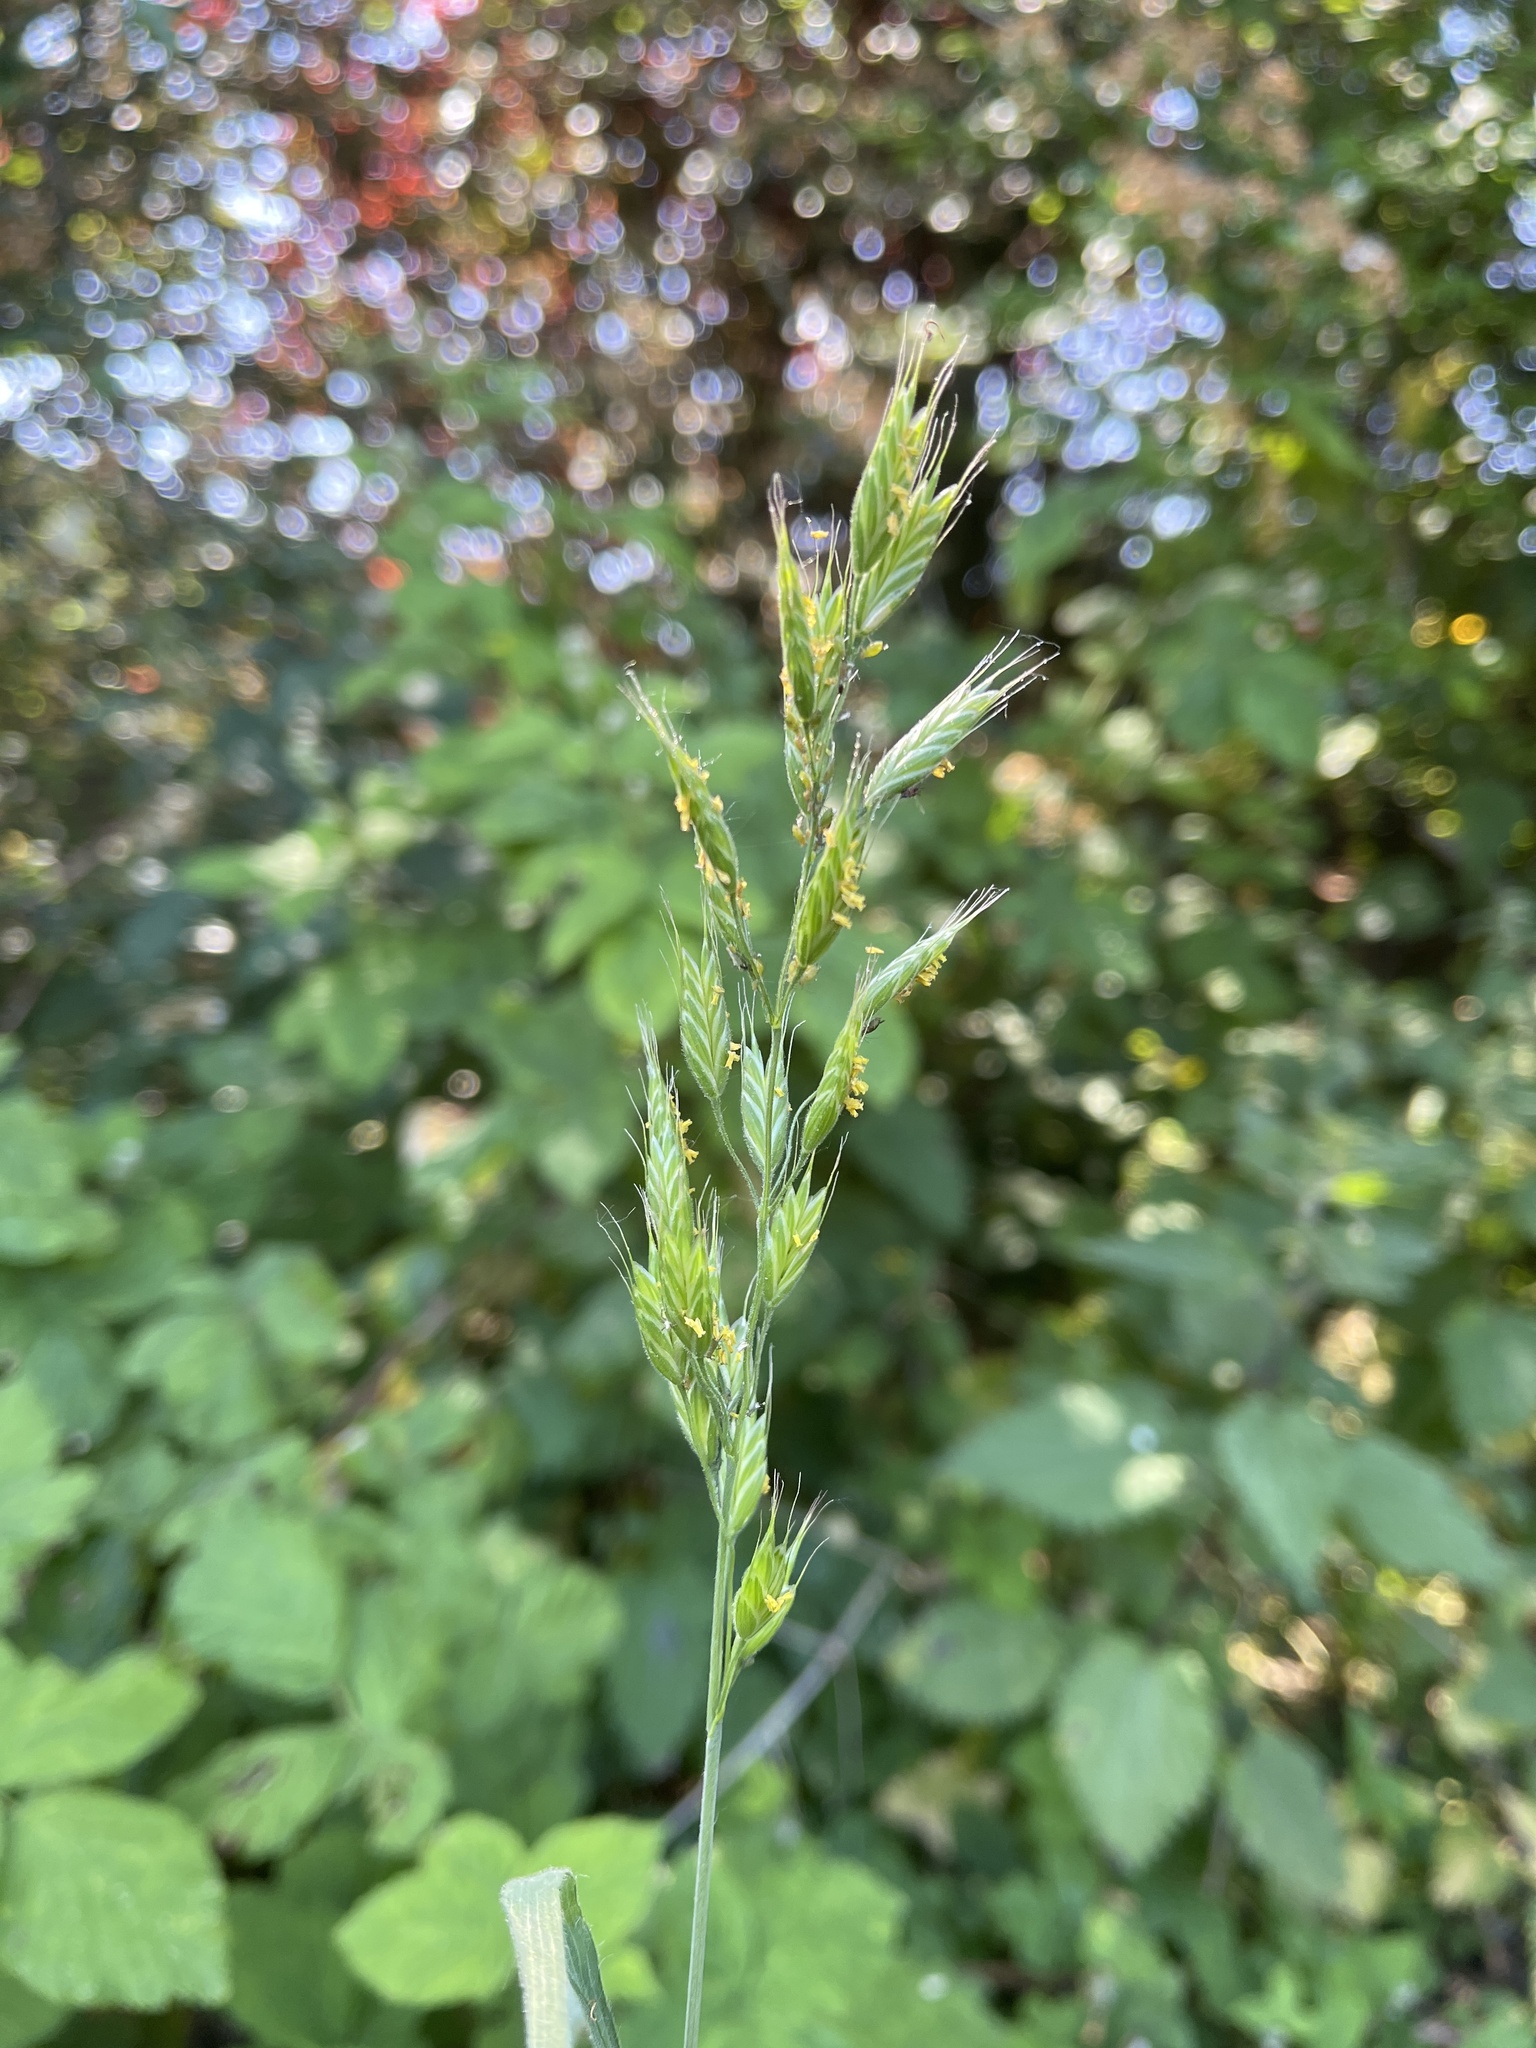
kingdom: Plantae
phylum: Tracheophyta
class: Liliopsida
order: Poales
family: Poaceae
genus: Bromus
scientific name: Bromus hordeaceus
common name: Soft brome
